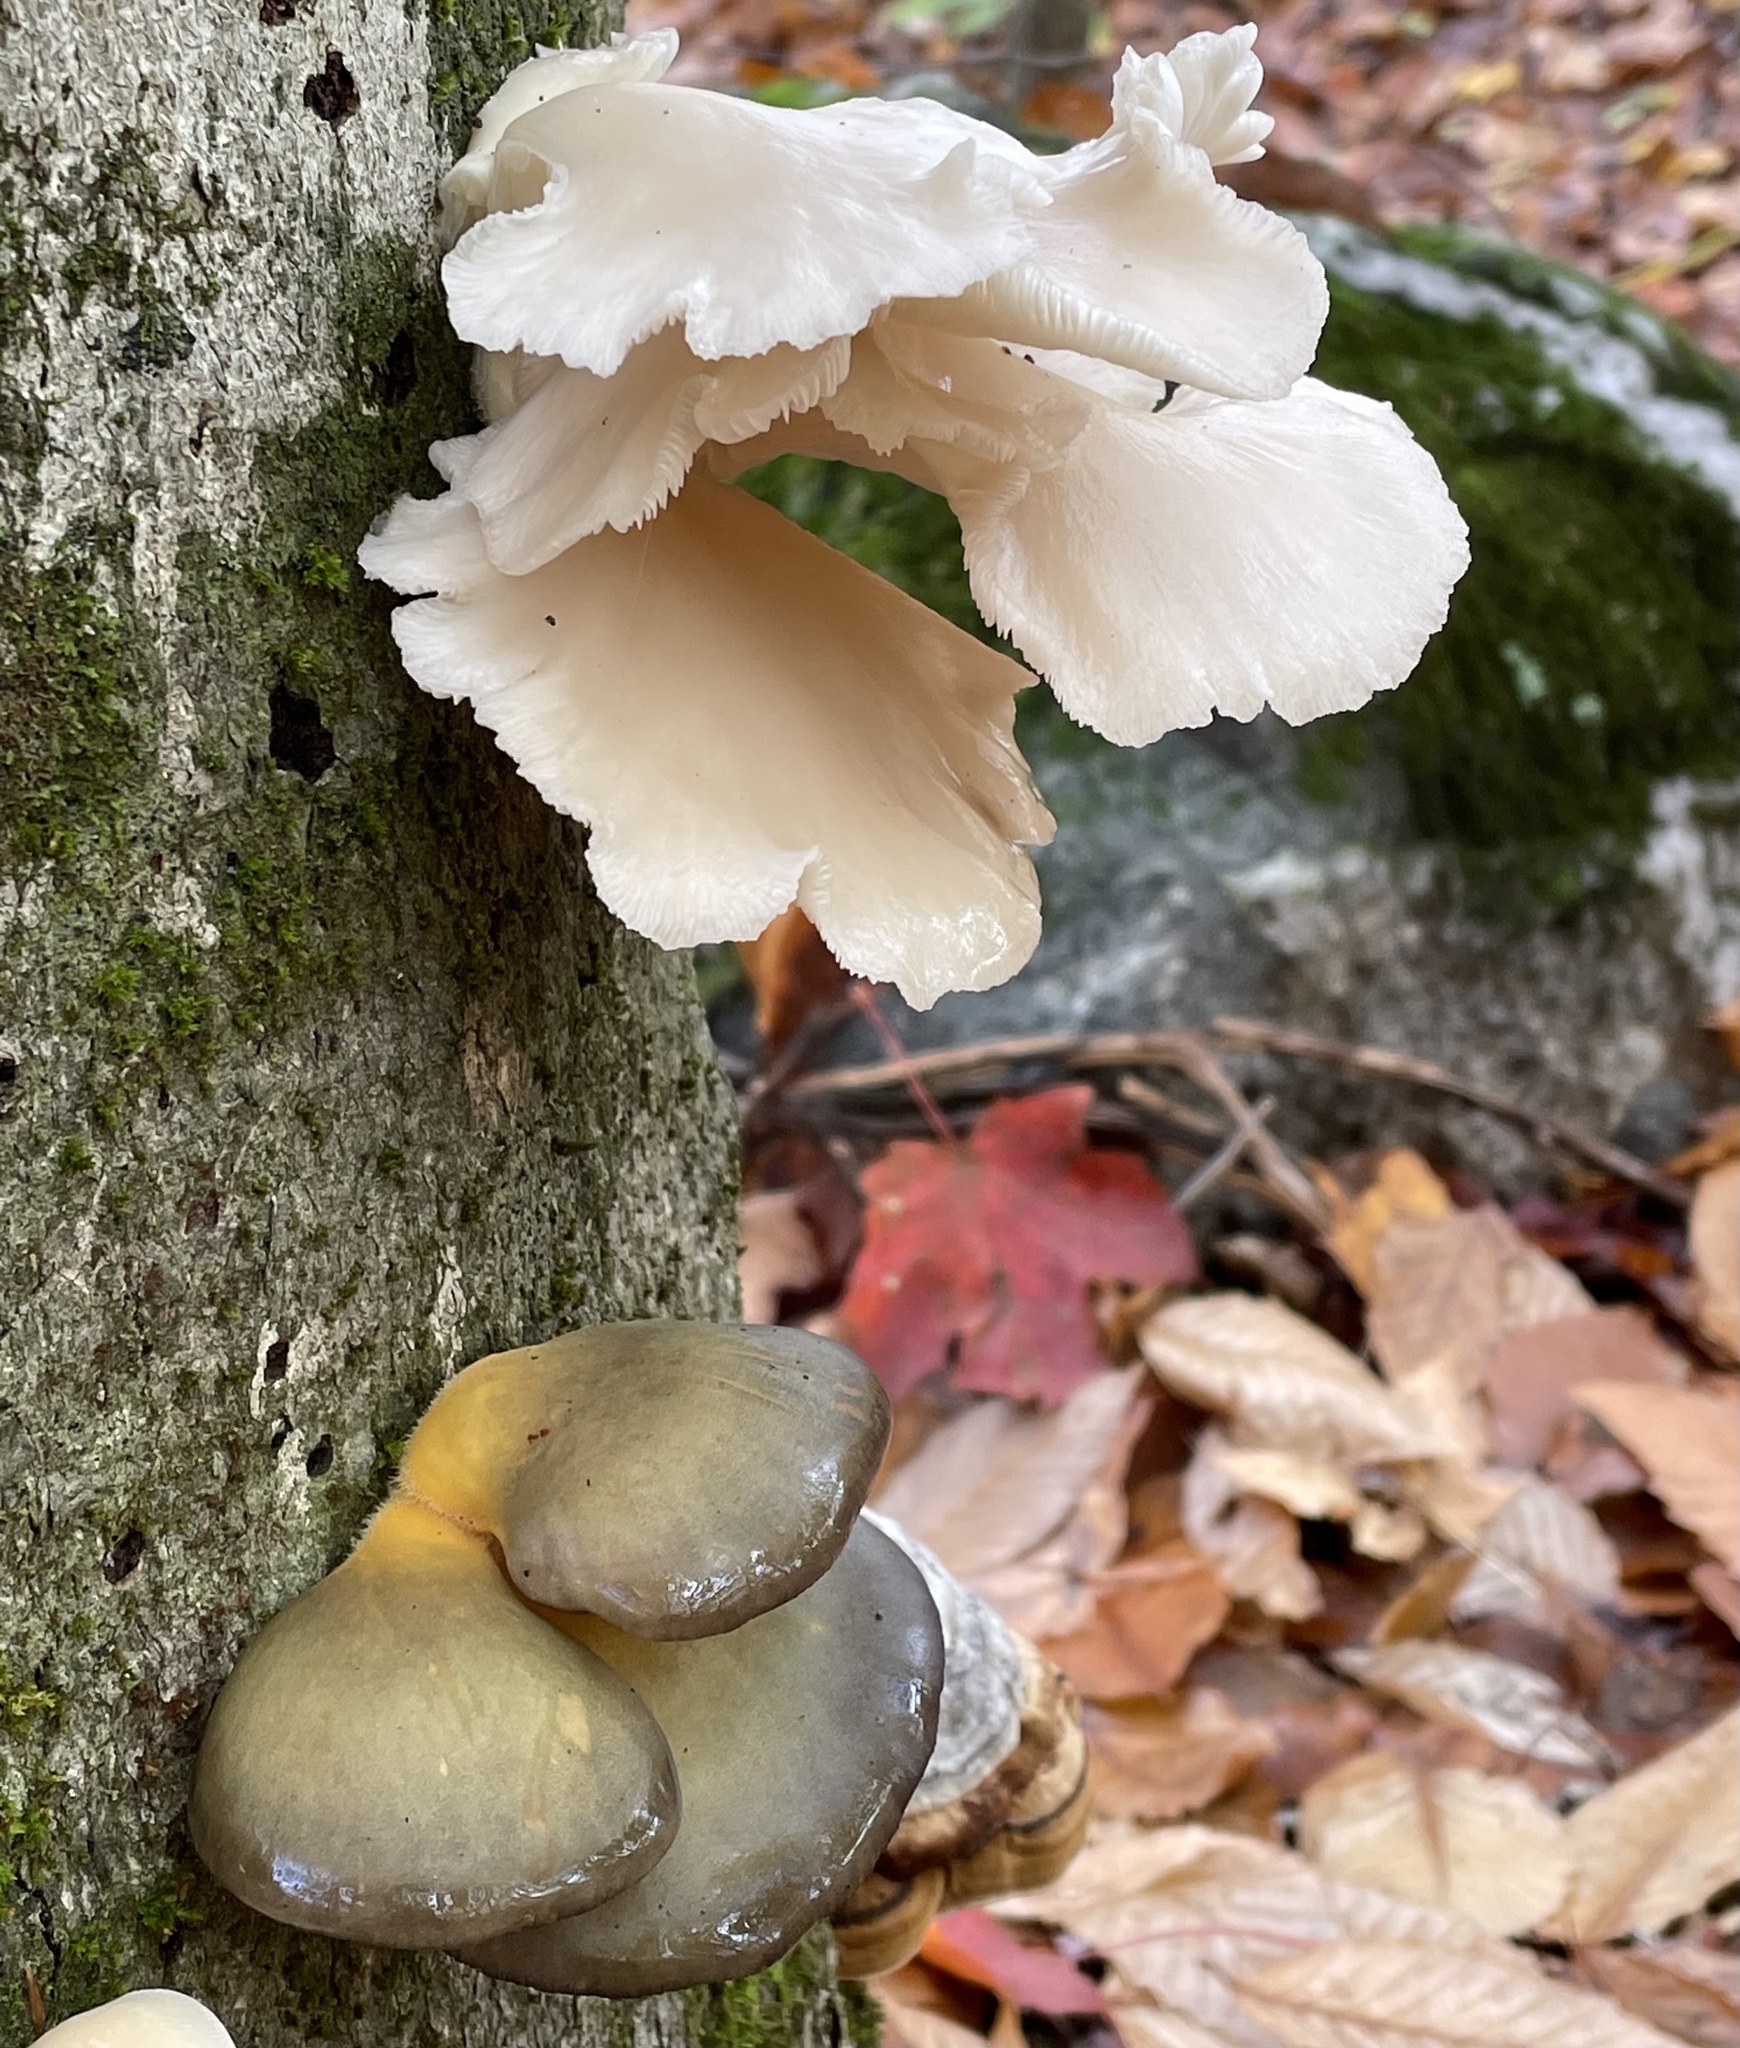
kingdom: Fungi
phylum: Basidiomycota
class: Agaricomycetes
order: Agaricales
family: Sarcomyxaceae
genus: Sarcomyxa
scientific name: Sarcomyxa serotina
